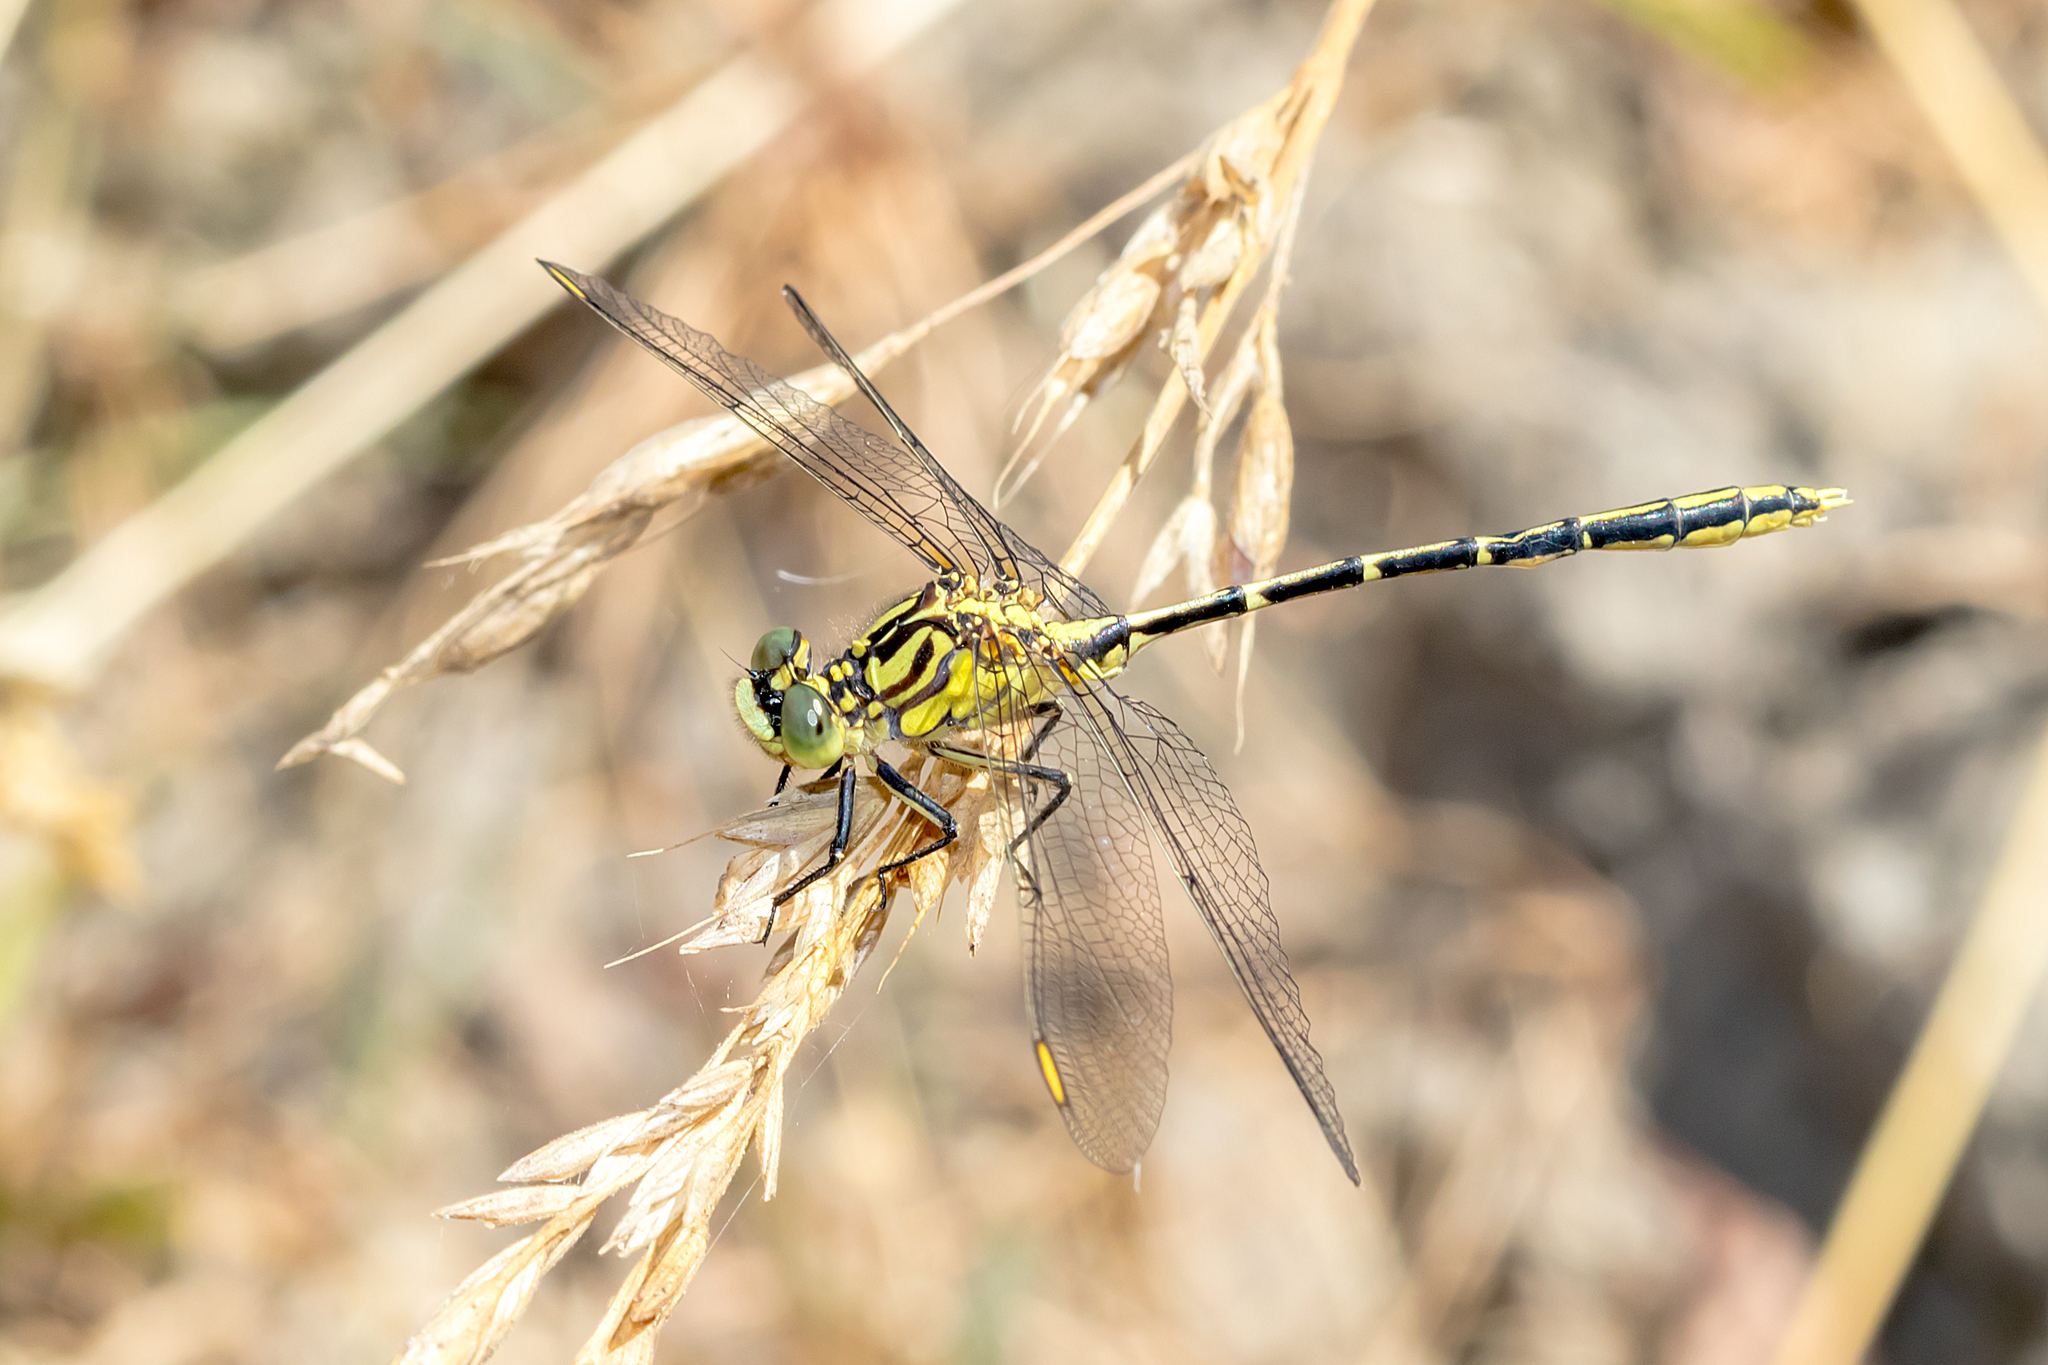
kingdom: Animalia
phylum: Arthropoda
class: Insecta
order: Odonata
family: Gomphidae
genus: Austrogomphus
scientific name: Austrogomphus guerini
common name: Yellow-striped hunter
